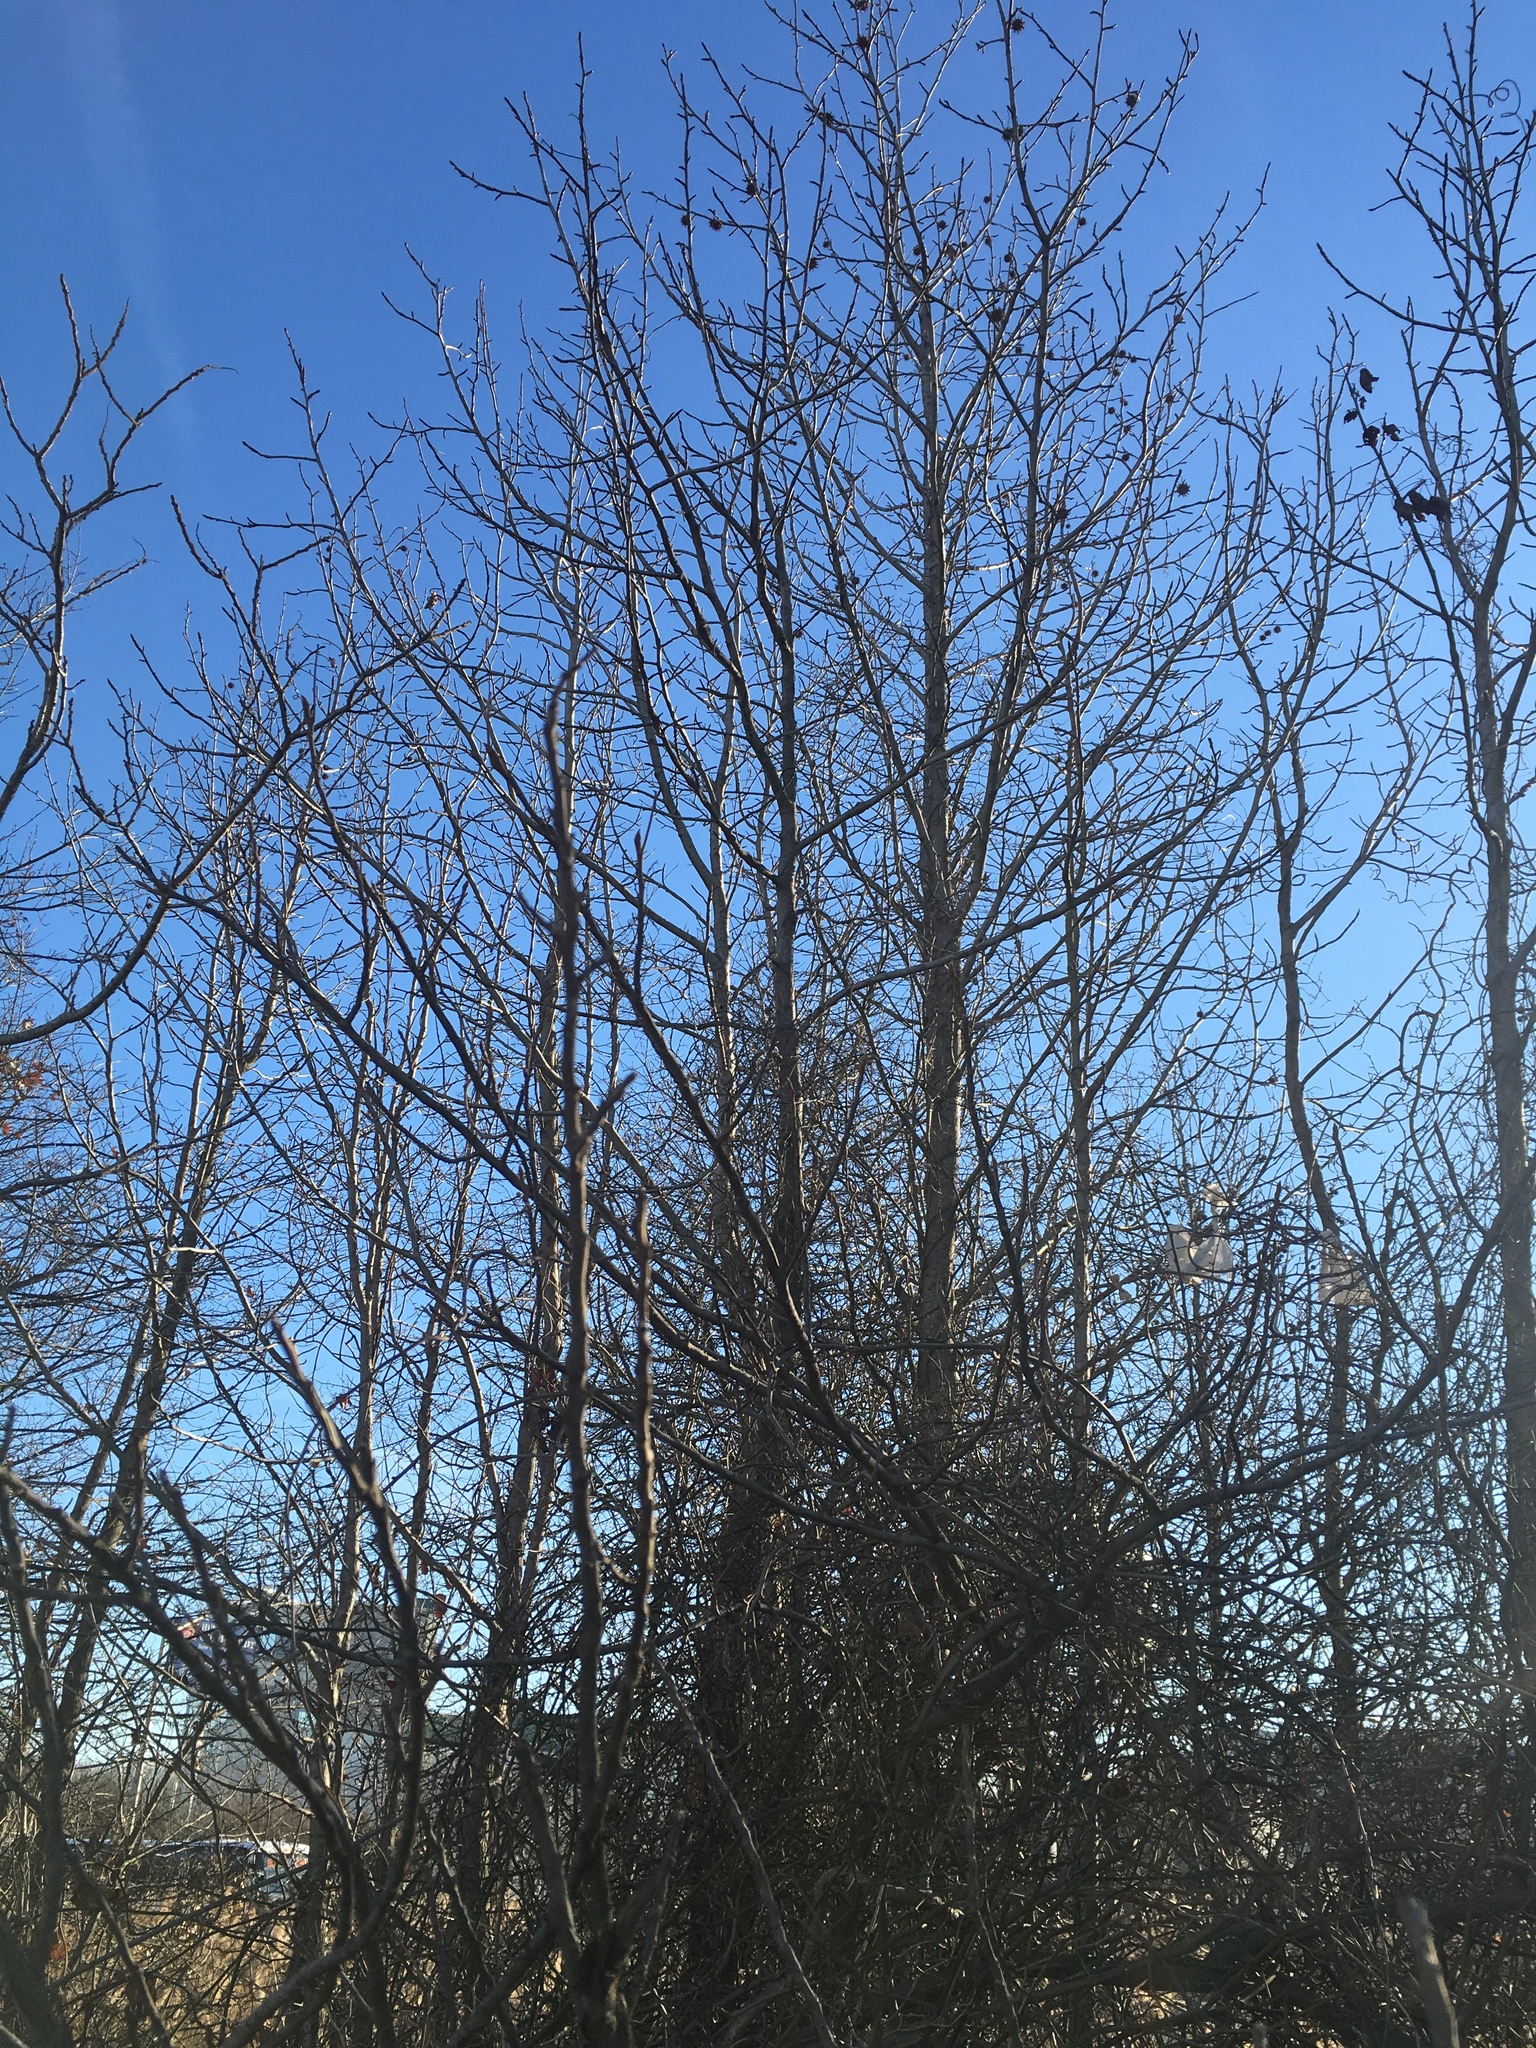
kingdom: Plantae
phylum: Tracheophyta
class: Magnoliopsida
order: Saxifragales
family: Altingiaceae
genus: Liquidambar
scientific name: Liquidambar styraciflua
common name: Sweet gum
